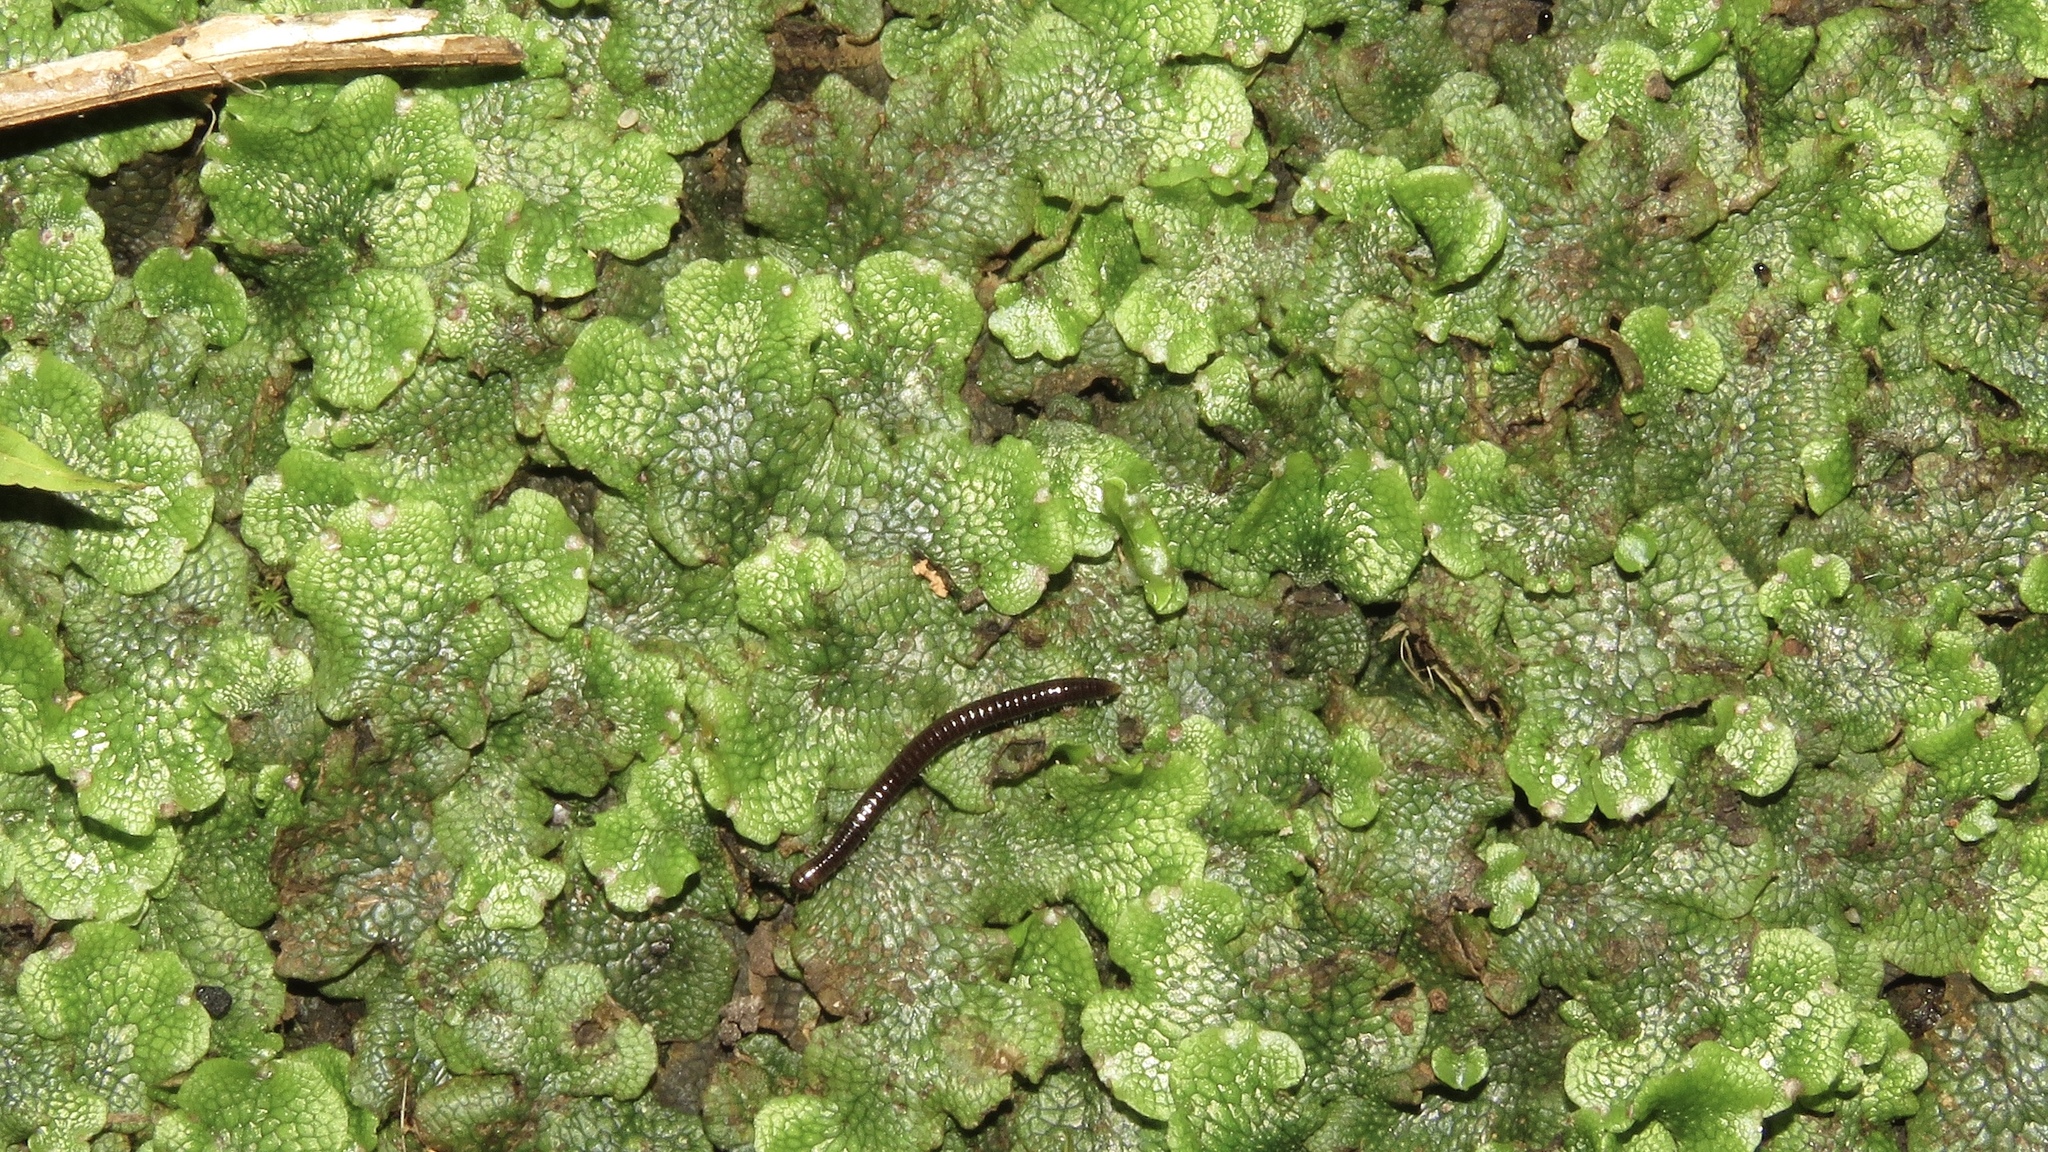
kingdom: Plantae
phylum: Marchantiophyta
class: Marchantiopsida
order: Marchantiales
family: Conocephalaceae
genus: Conocephalum
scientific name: Conocephalum salebrosum
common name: Cat-tongue liverwort
